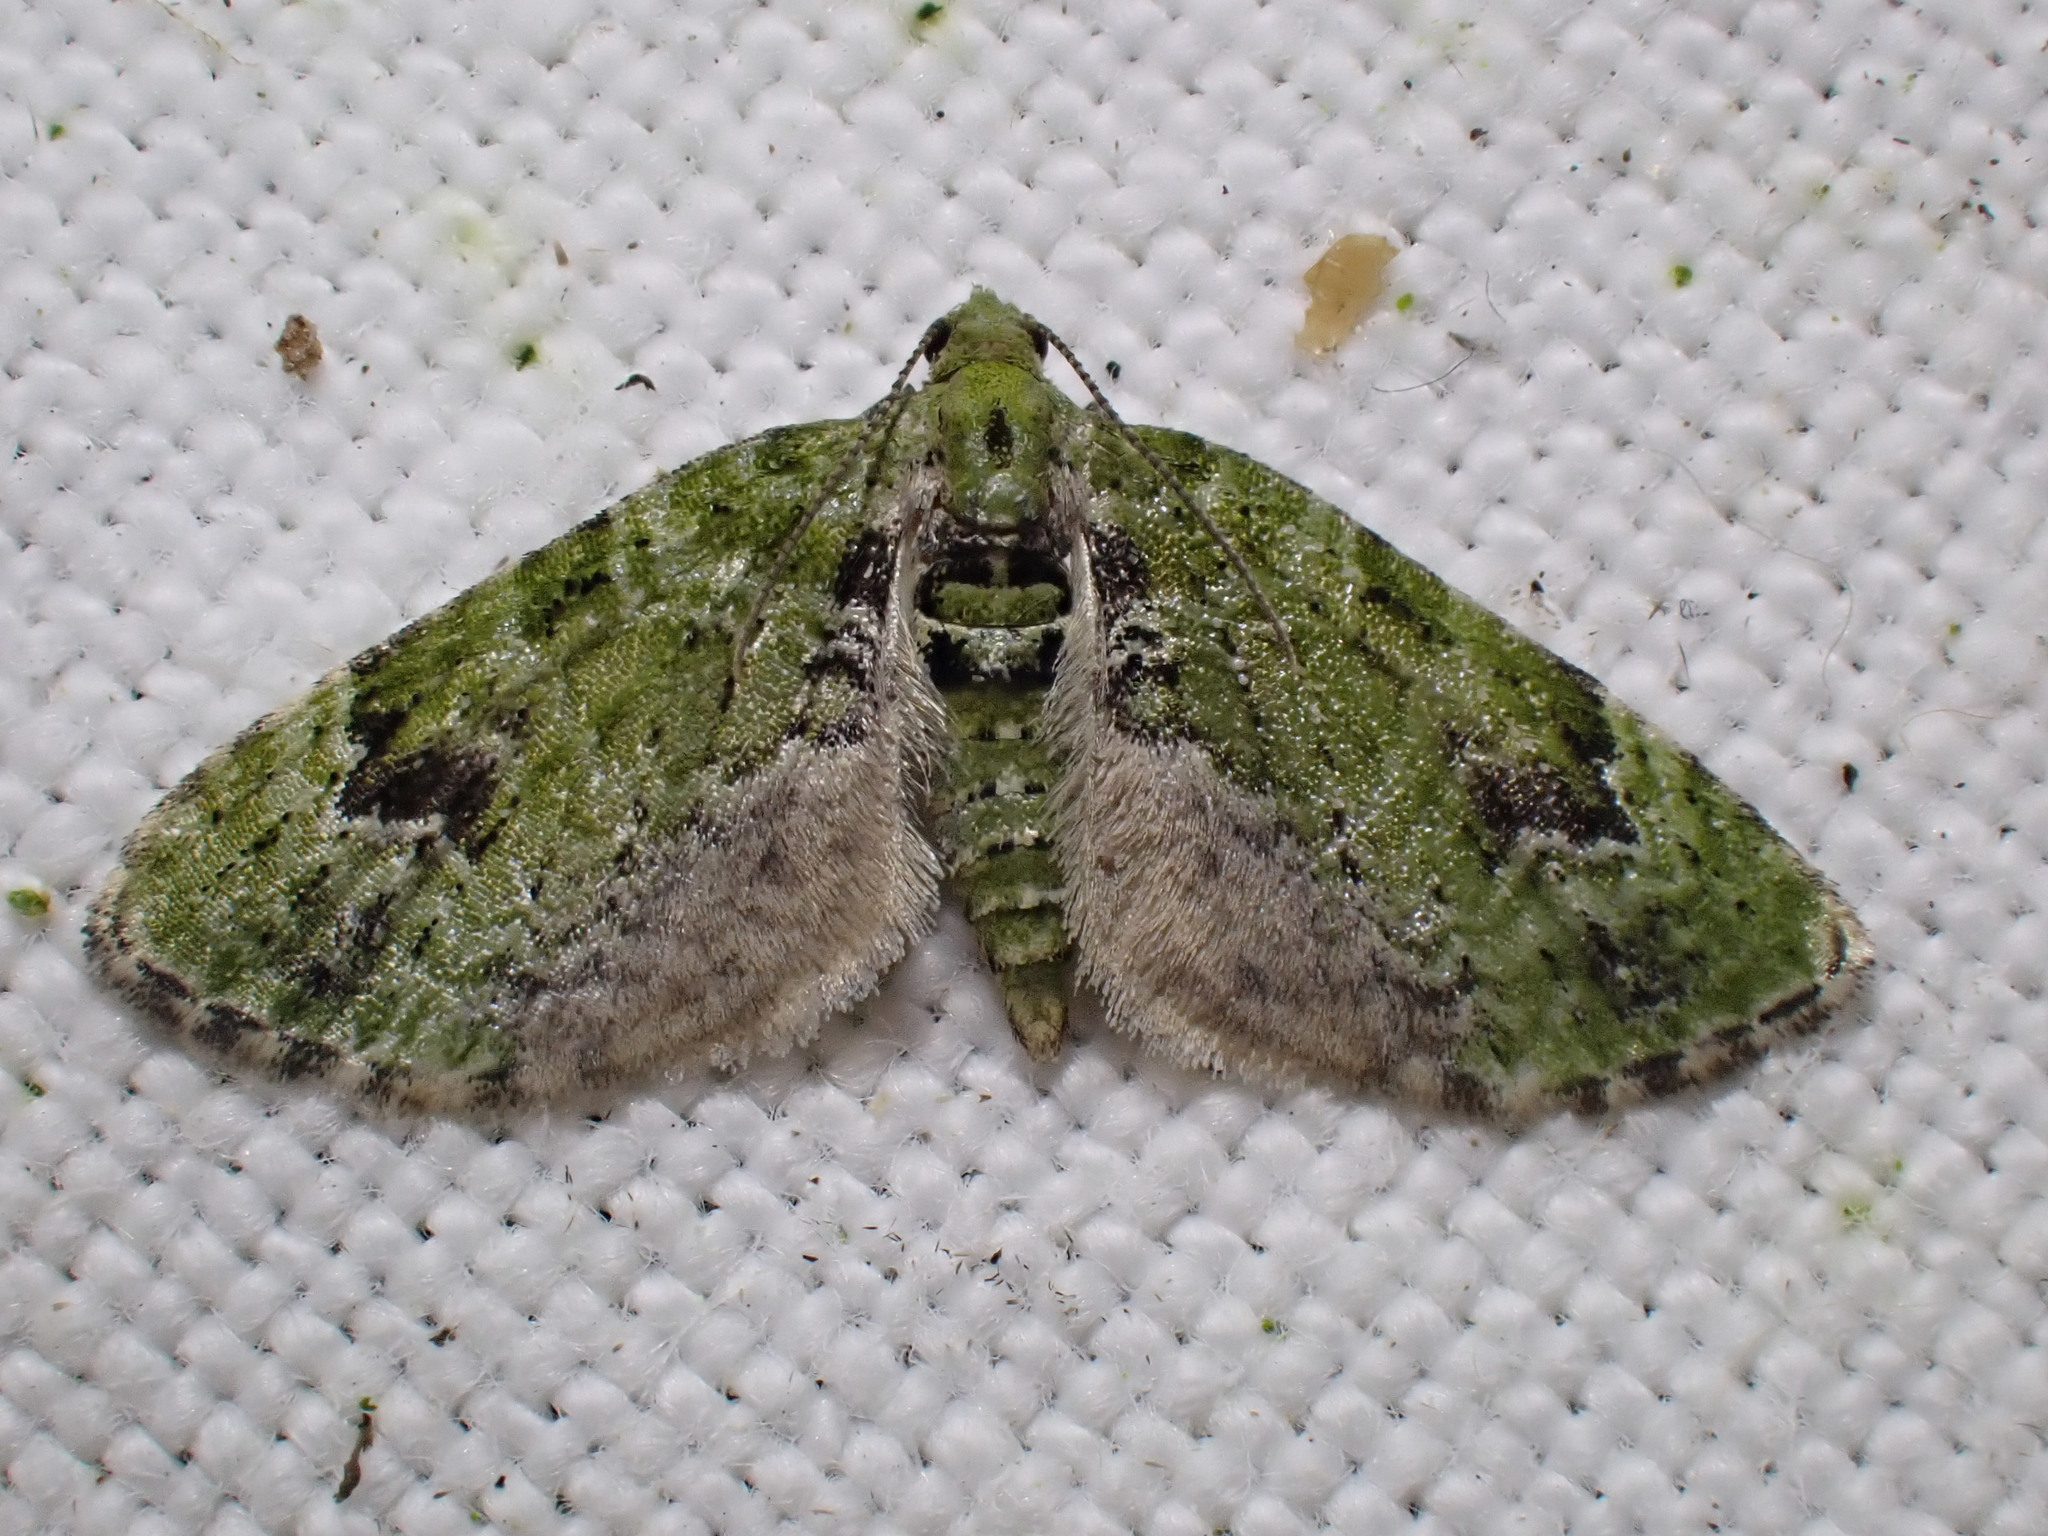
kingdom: Animalia
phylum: Arthropoda
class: Insecta
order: Lepidoptera
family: Geometridae
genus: Chloroclystis
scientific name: Chloroclystis v-ata
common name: V-pug
